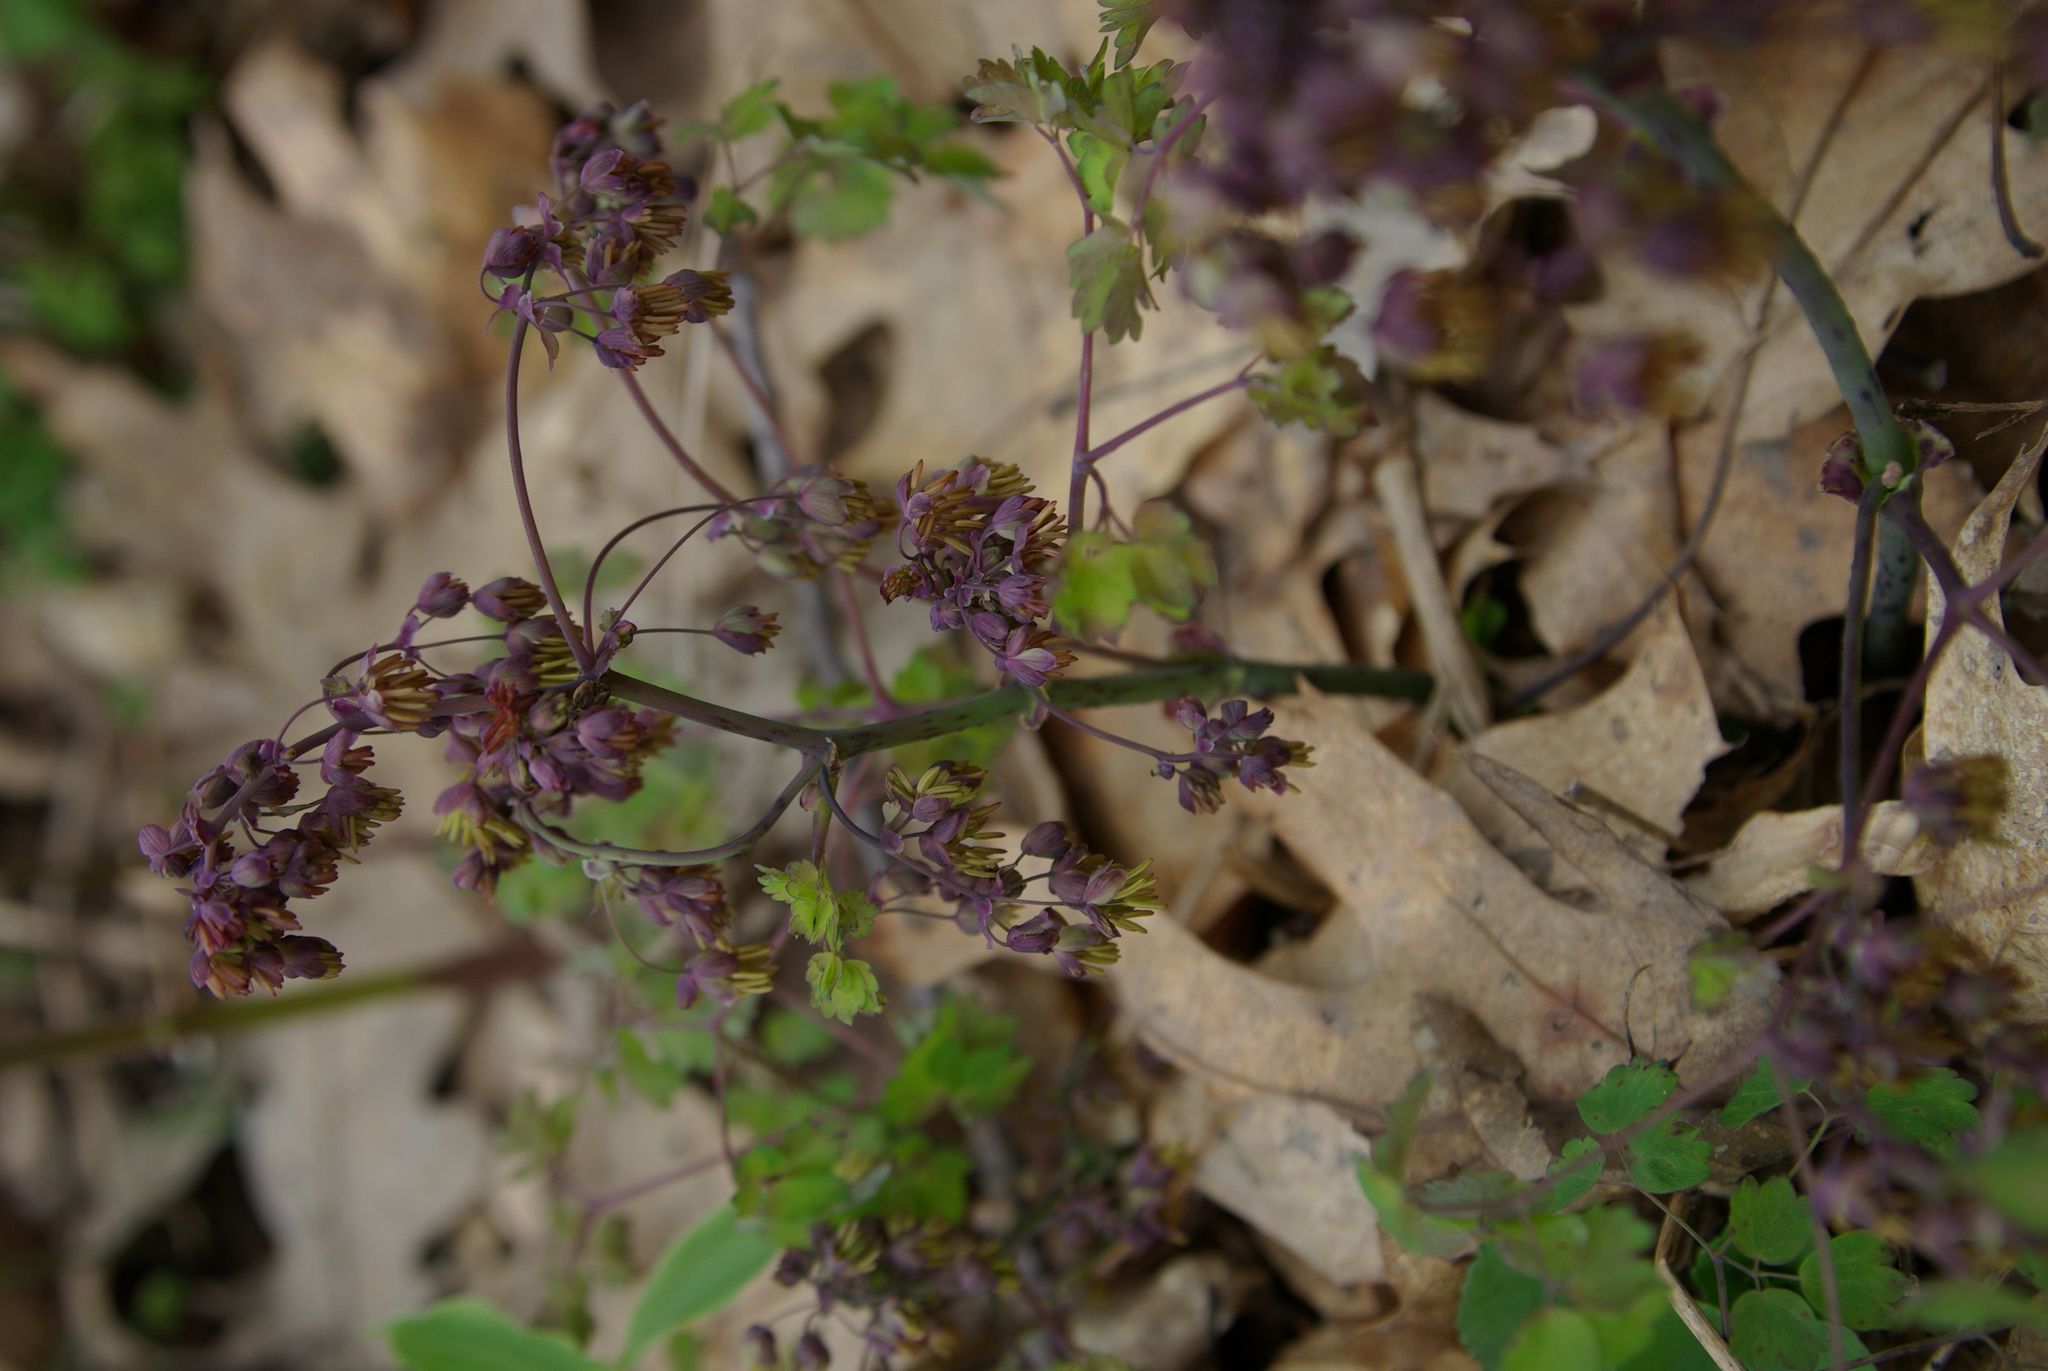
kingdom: Plantae
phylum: Tracheophyta
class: Magnoliopsida
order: Ranunculales
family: Ranunculaceae
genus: Thalictrum
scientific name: Thalictrum dioicum
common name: Early meadow-rue
